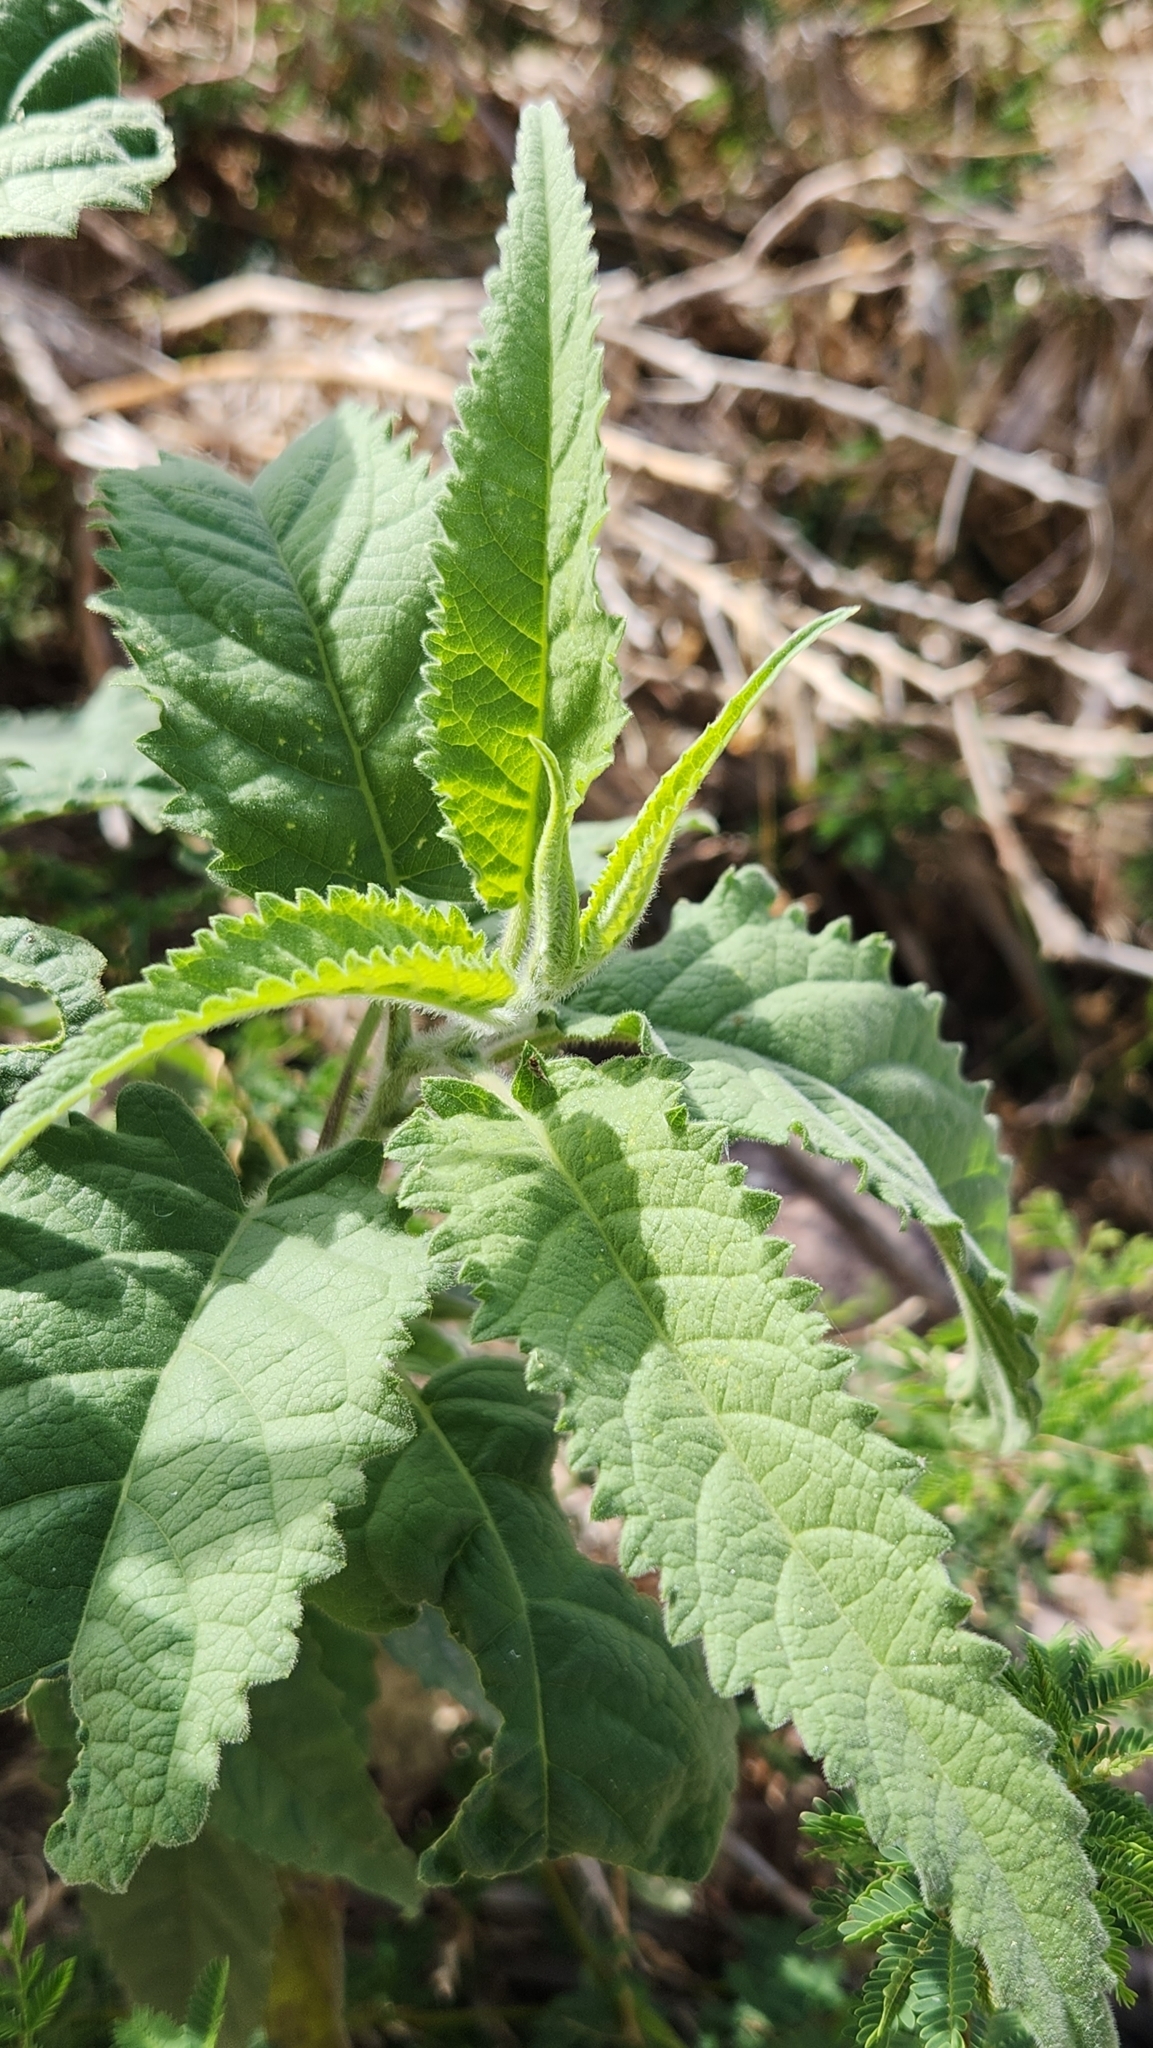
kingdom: Plantae
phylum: Tracheophyta
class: Magnoliopsida
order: Asterales
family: Asteraceae
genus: Ambrosia
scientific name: Ambrosia ambrosioides
